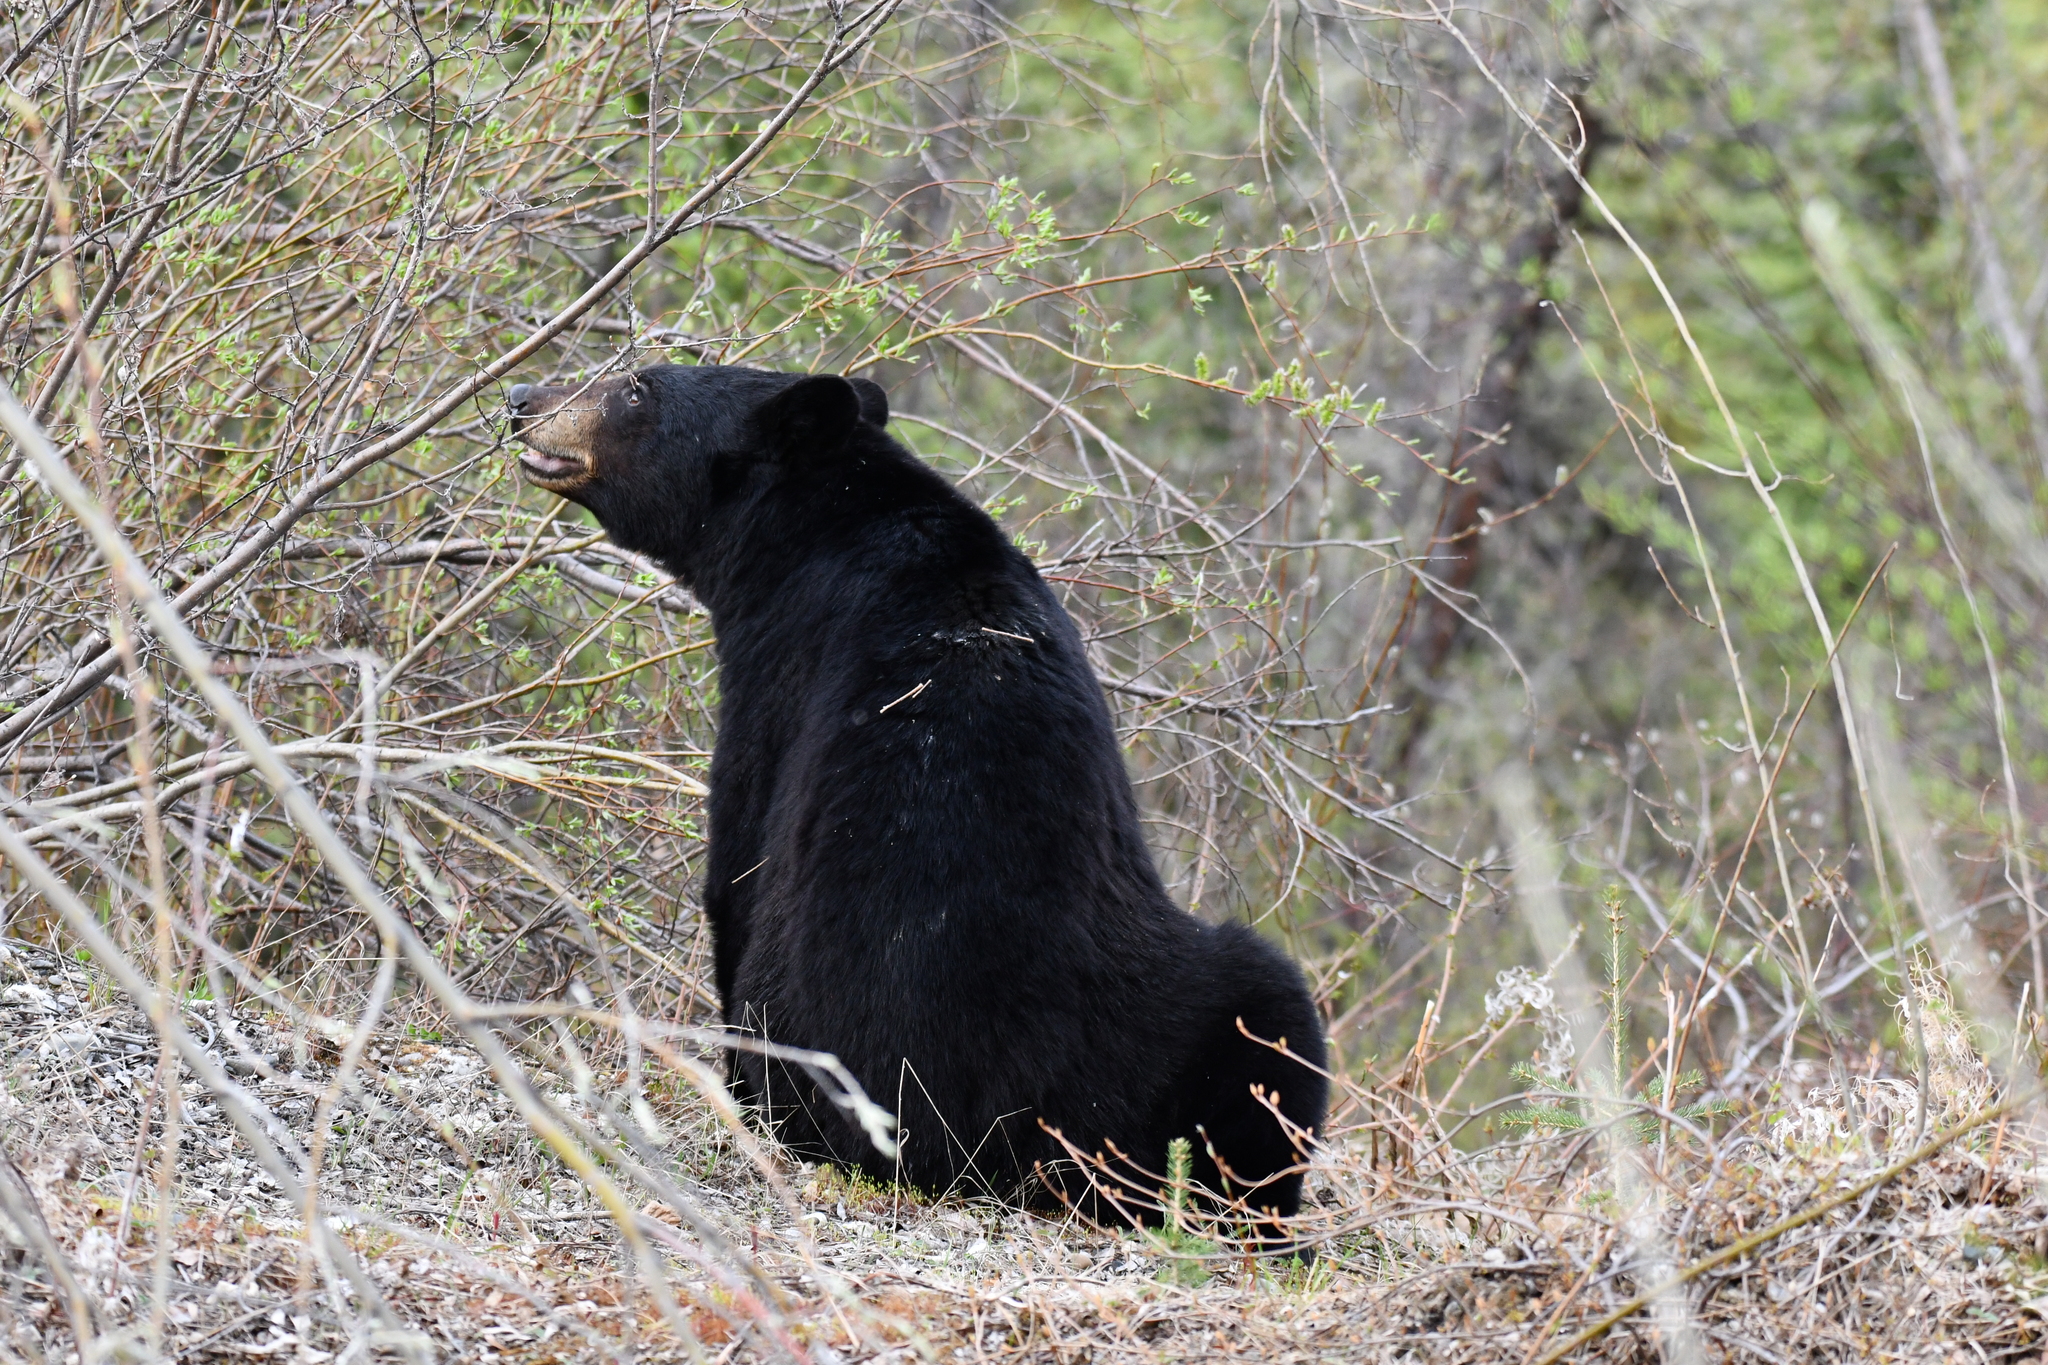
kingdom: Animalia
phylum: Chordata
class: Mammalia
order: Carnivora
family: Ursidae
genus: Ursus
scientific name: Ursus americanus
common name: American black bear
